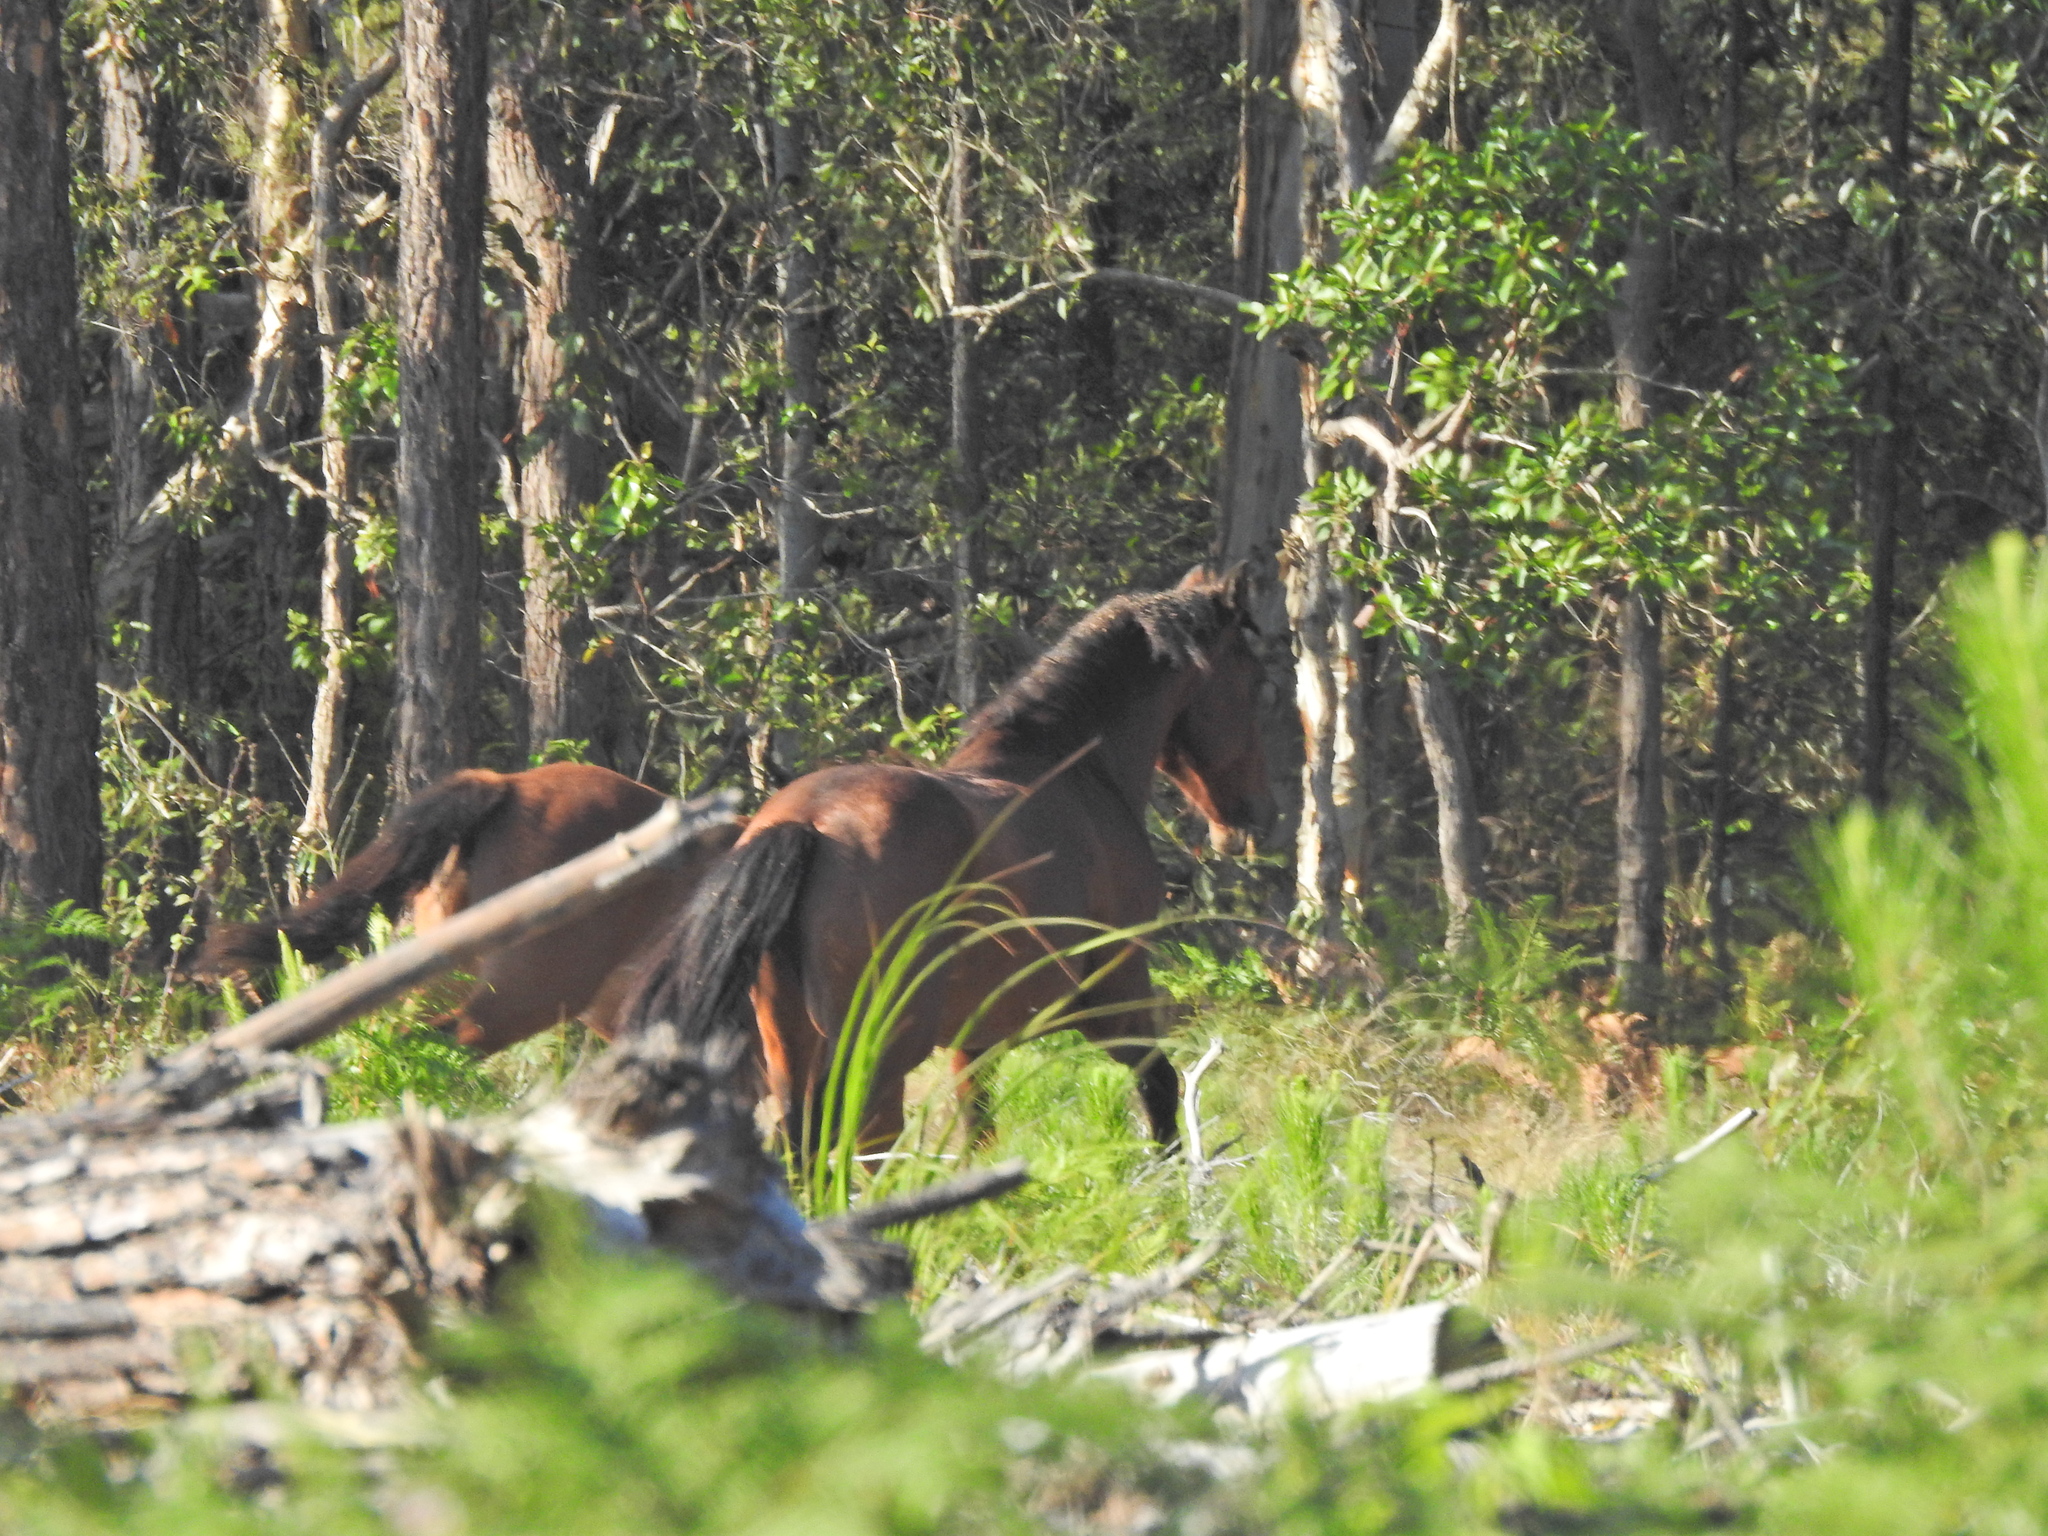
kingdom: Animalia
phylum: Chordata
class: Mammalia
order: Perissodactyla
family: Equidae
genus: Equus
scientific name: Equus caballus
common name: Horse
